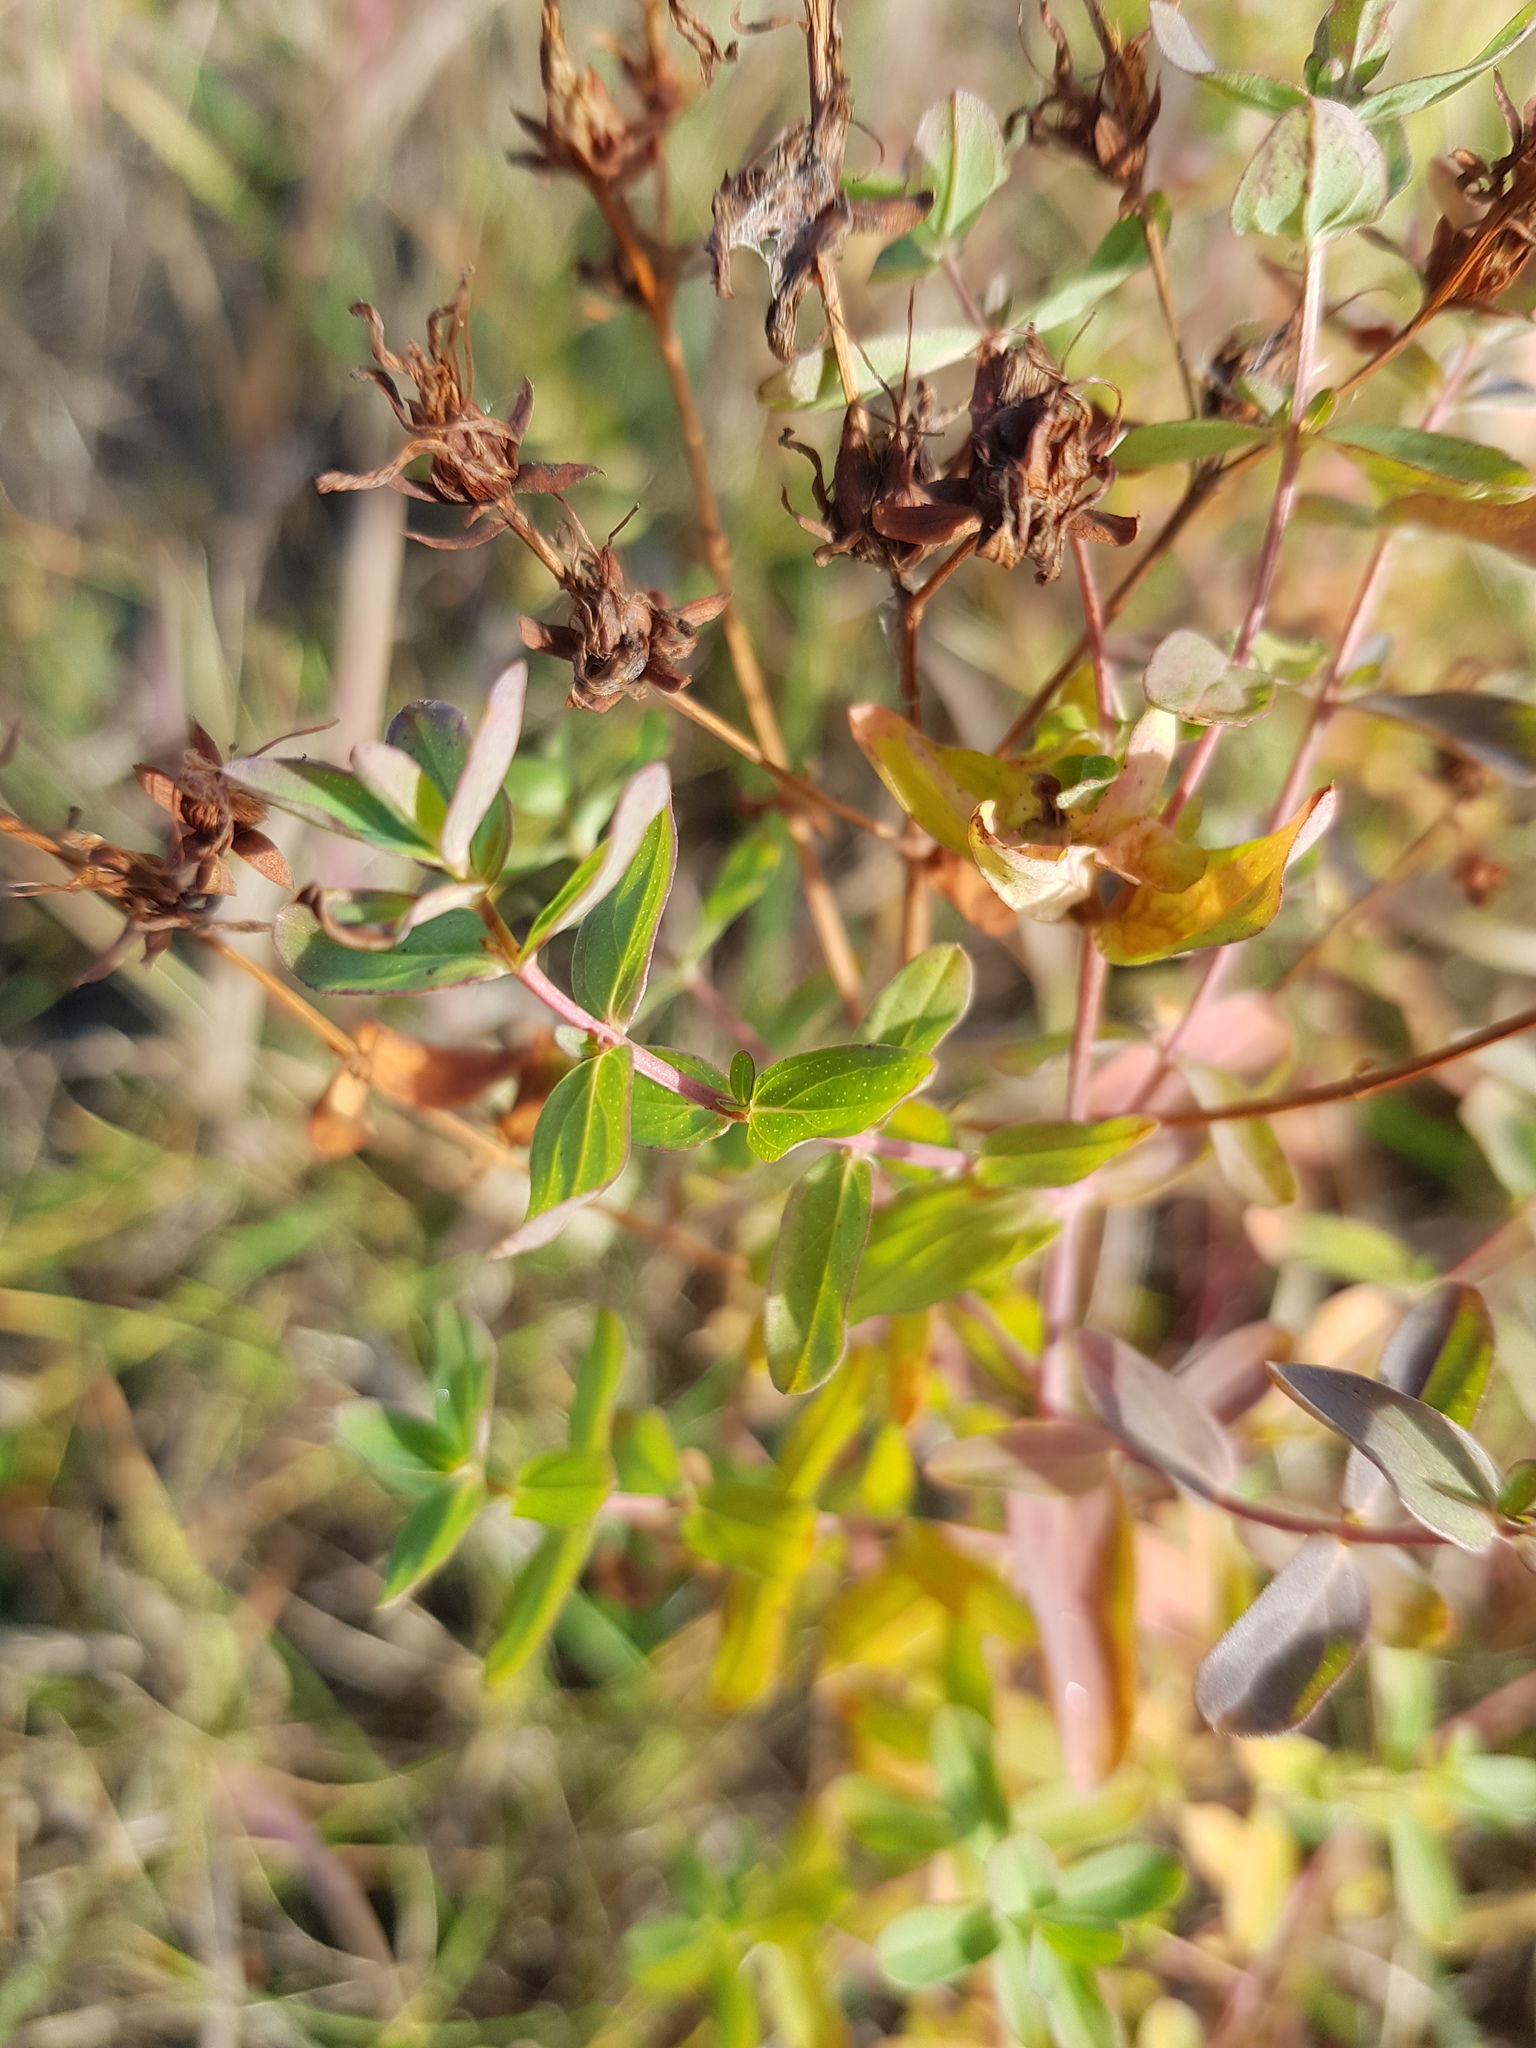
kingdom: Plantae
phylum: Tracheophyta
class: Magnoliopsida
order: Malpighiales
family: Hypericaceae
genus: Hypericum
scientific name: Hypericum perforatum
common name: Common st. johnswort
